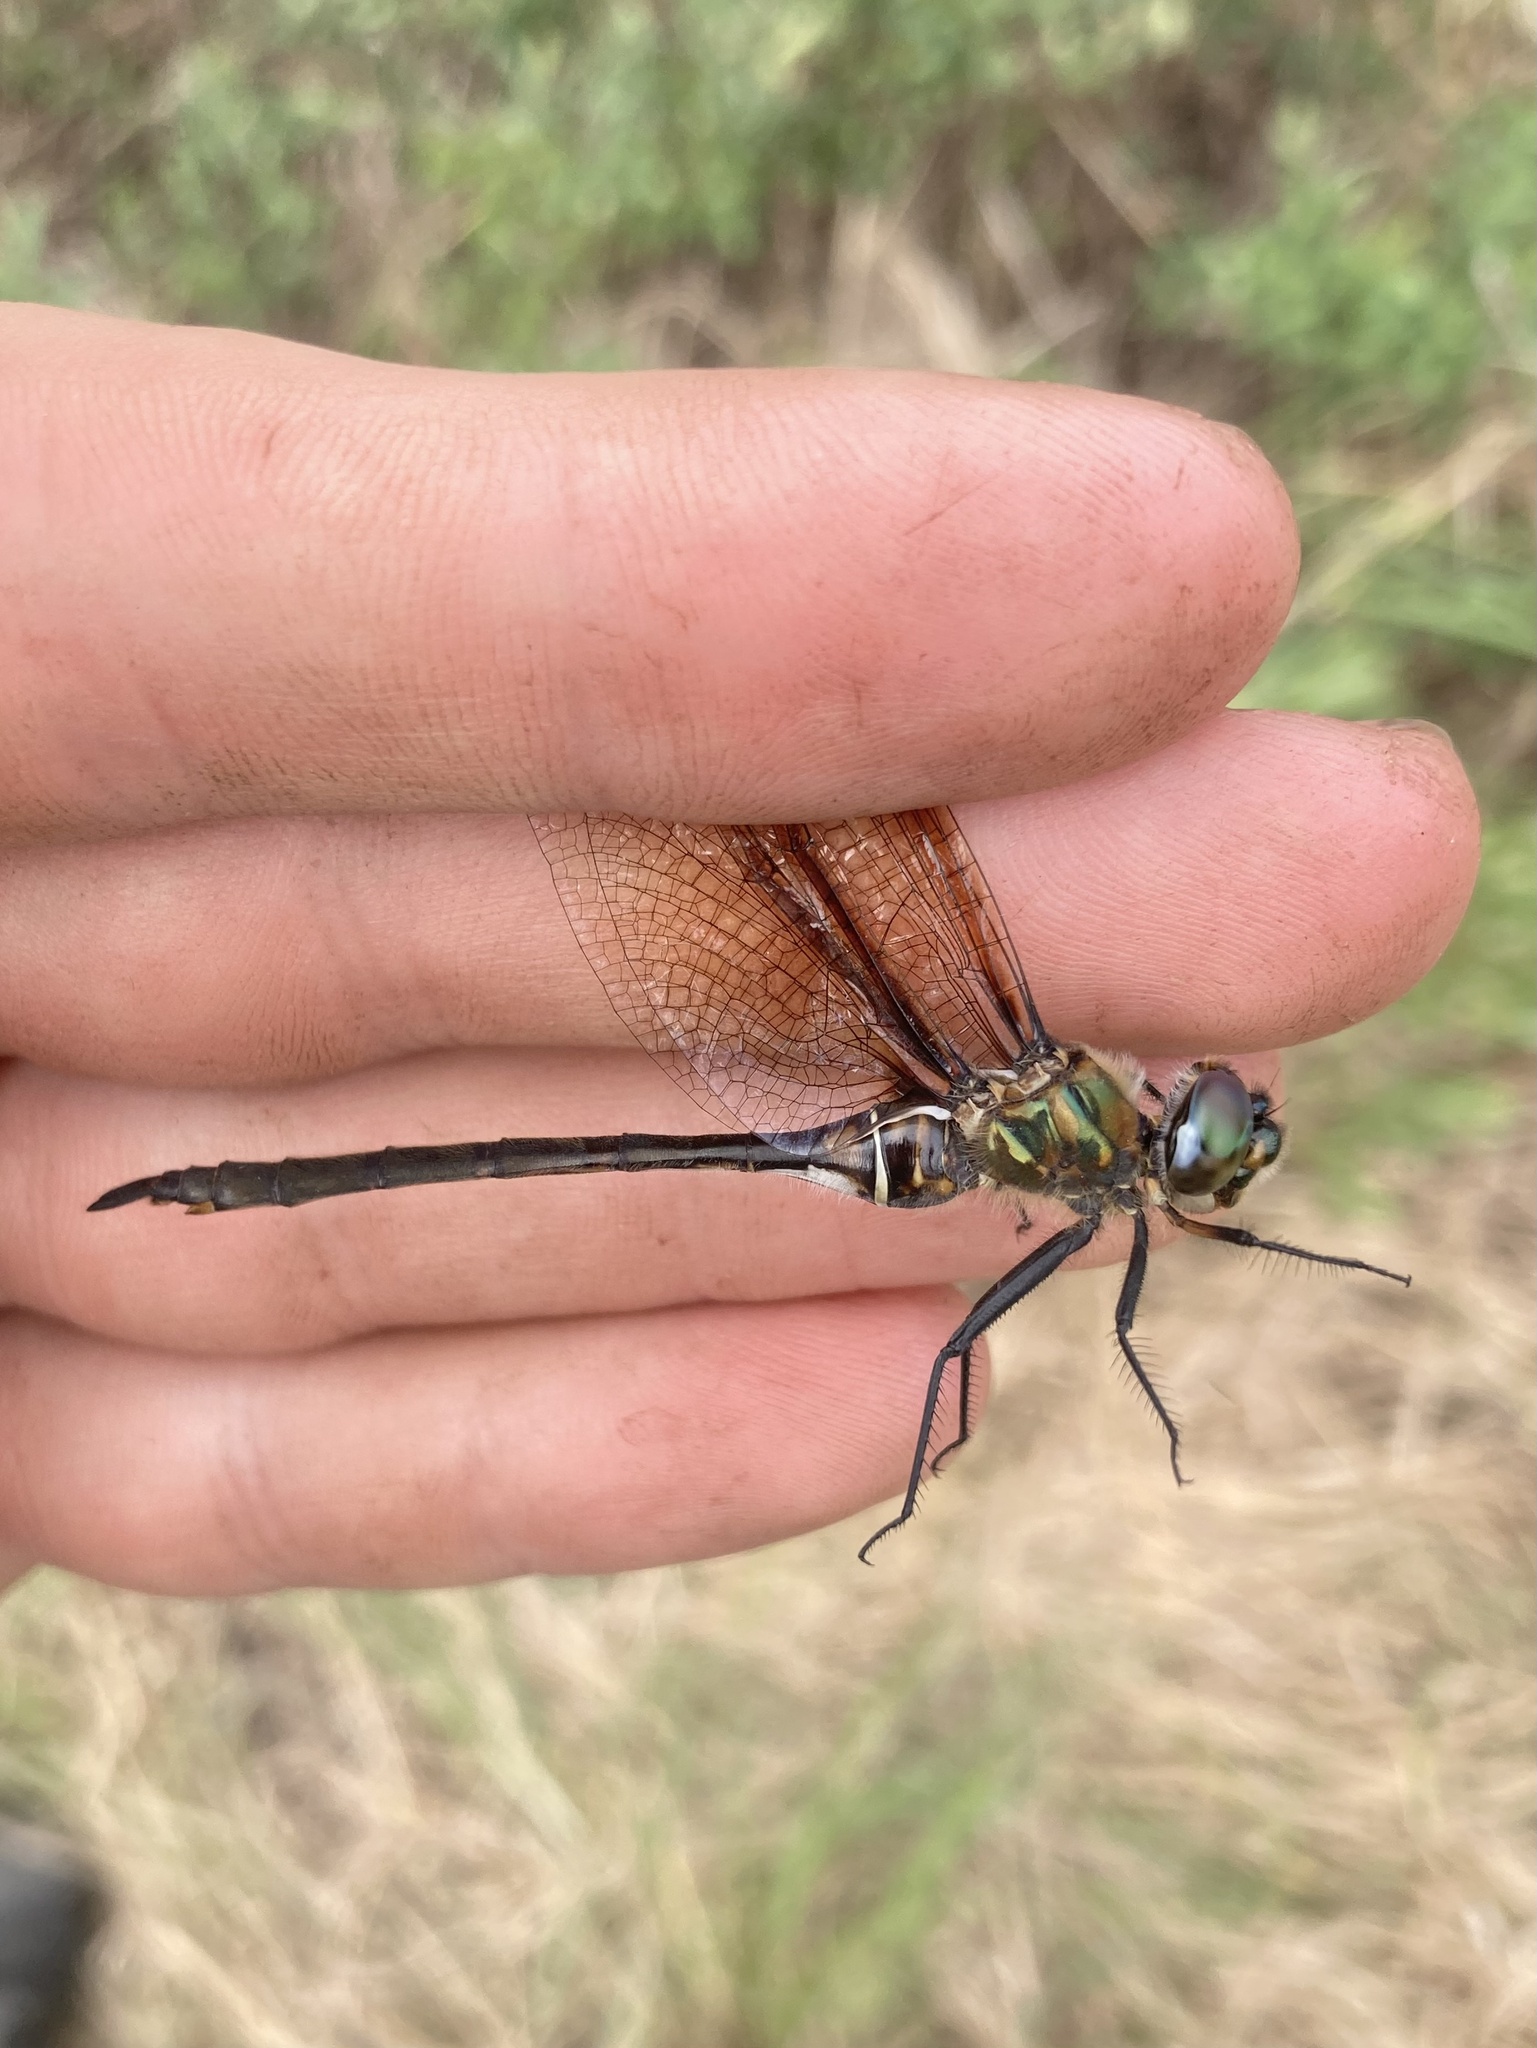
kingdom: Animalia
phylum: Arthropoda
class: Insecta
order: Odonata
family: Corduliidae
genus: Somatochlora
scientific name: Somatochlora franklini
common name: Delicate emerald
